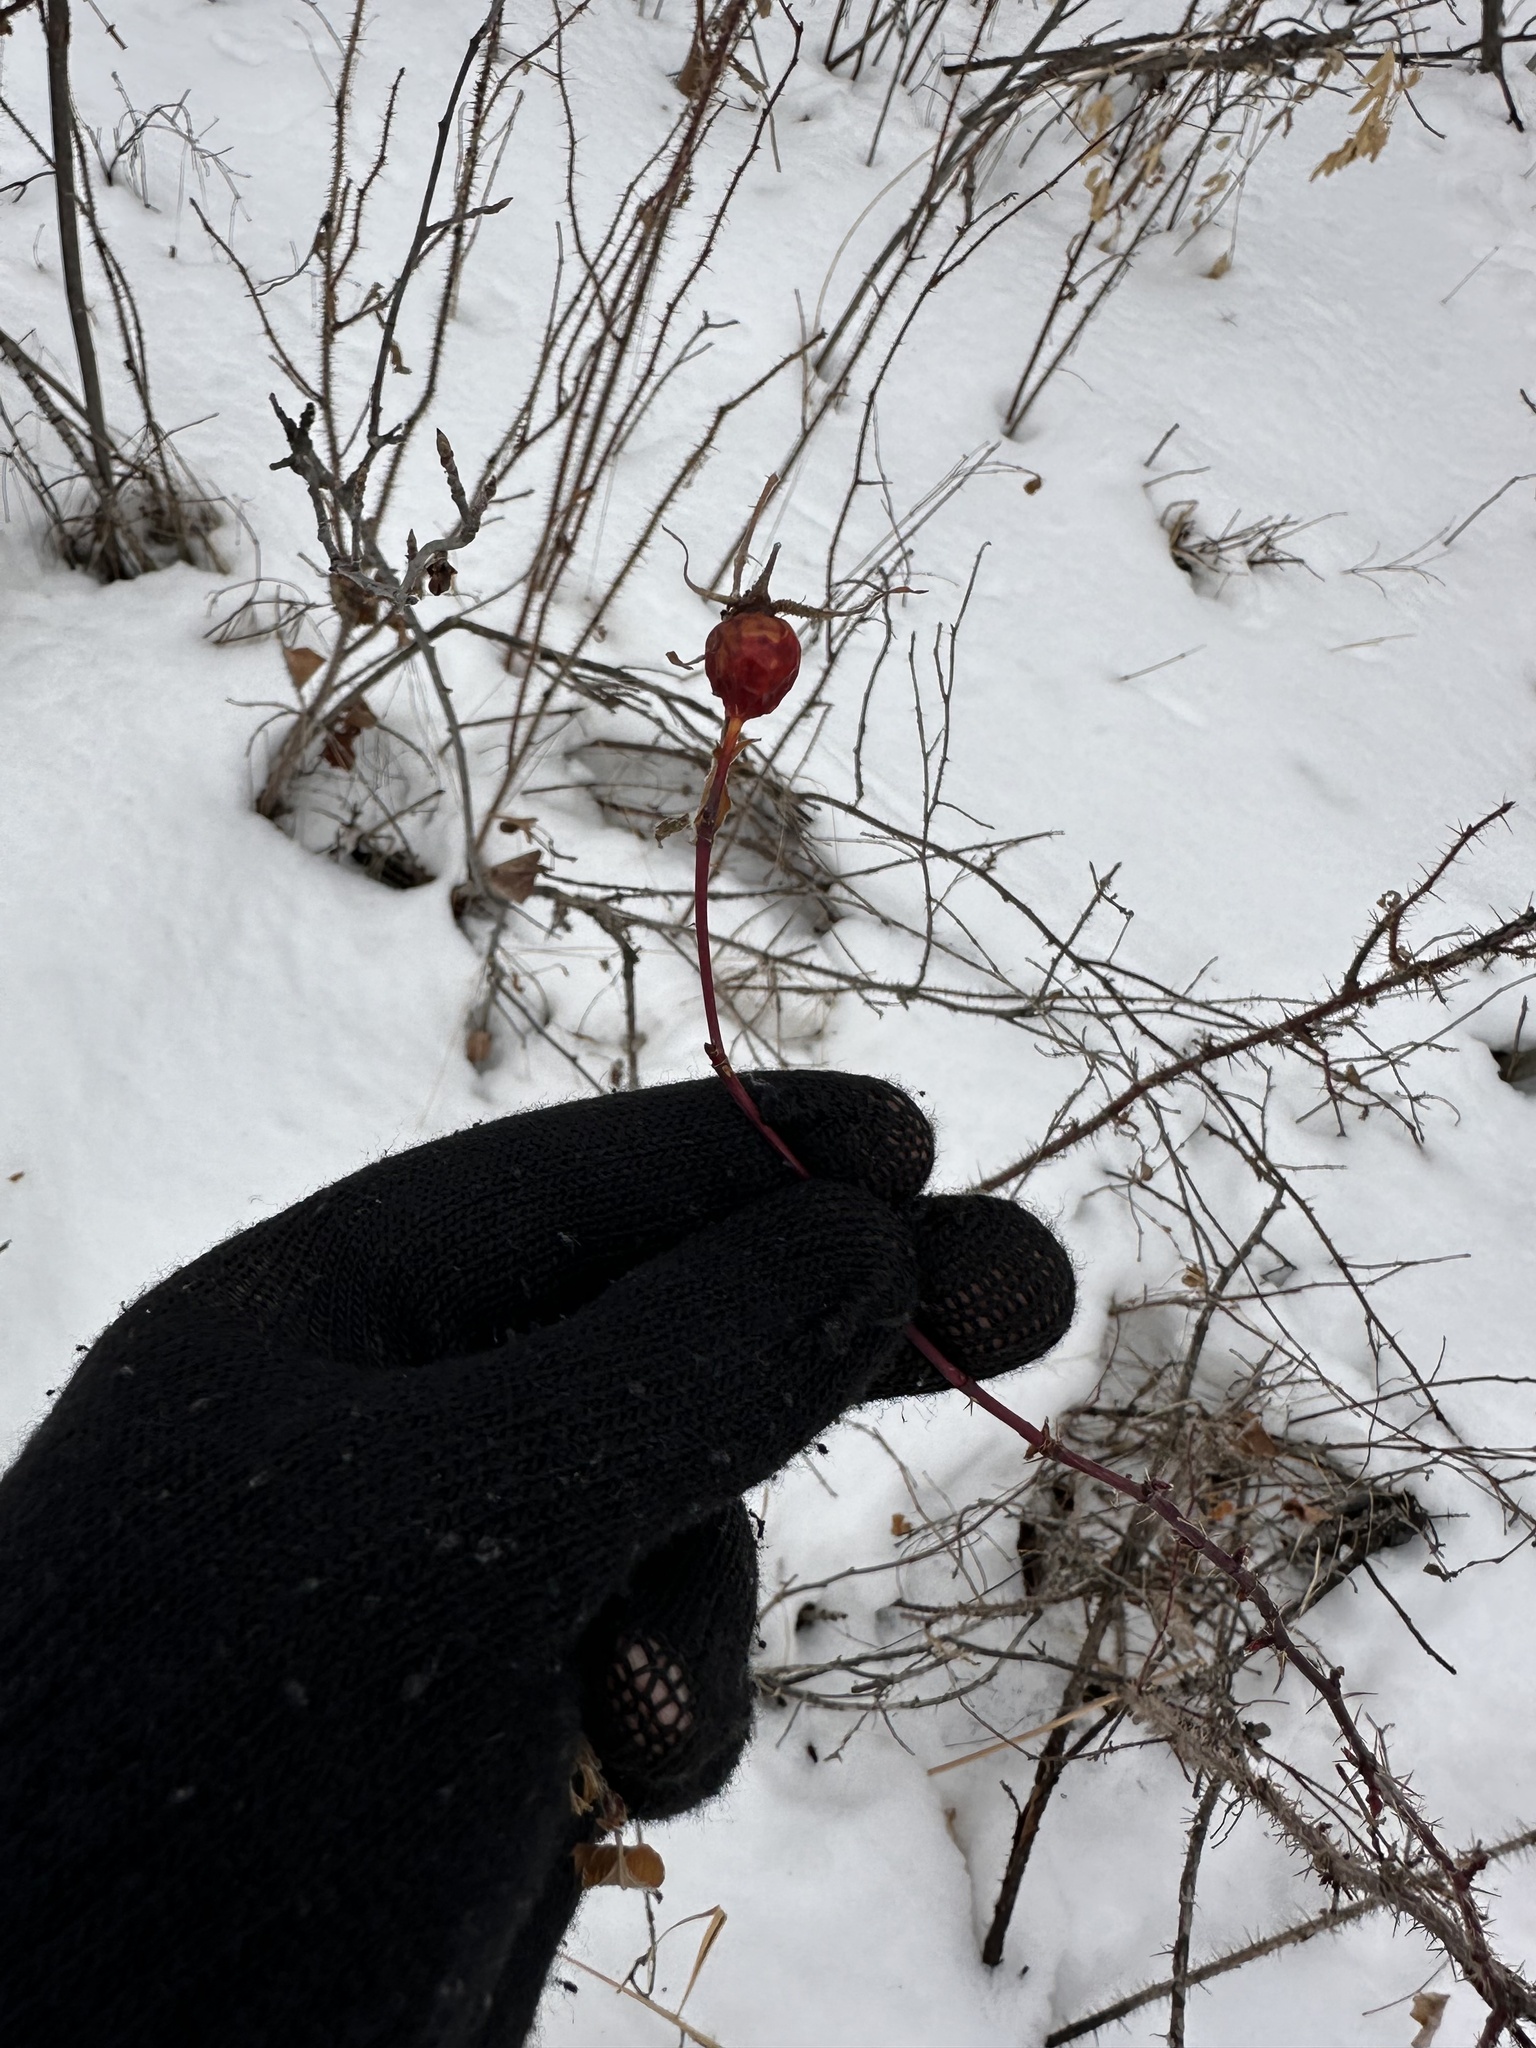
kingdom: Plantae
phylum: Tracheophyta
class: Magnoliopsida
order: Rosales
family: Rosaceae
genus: Rosa
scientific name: Rosa woodsii
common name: Woods's rose
